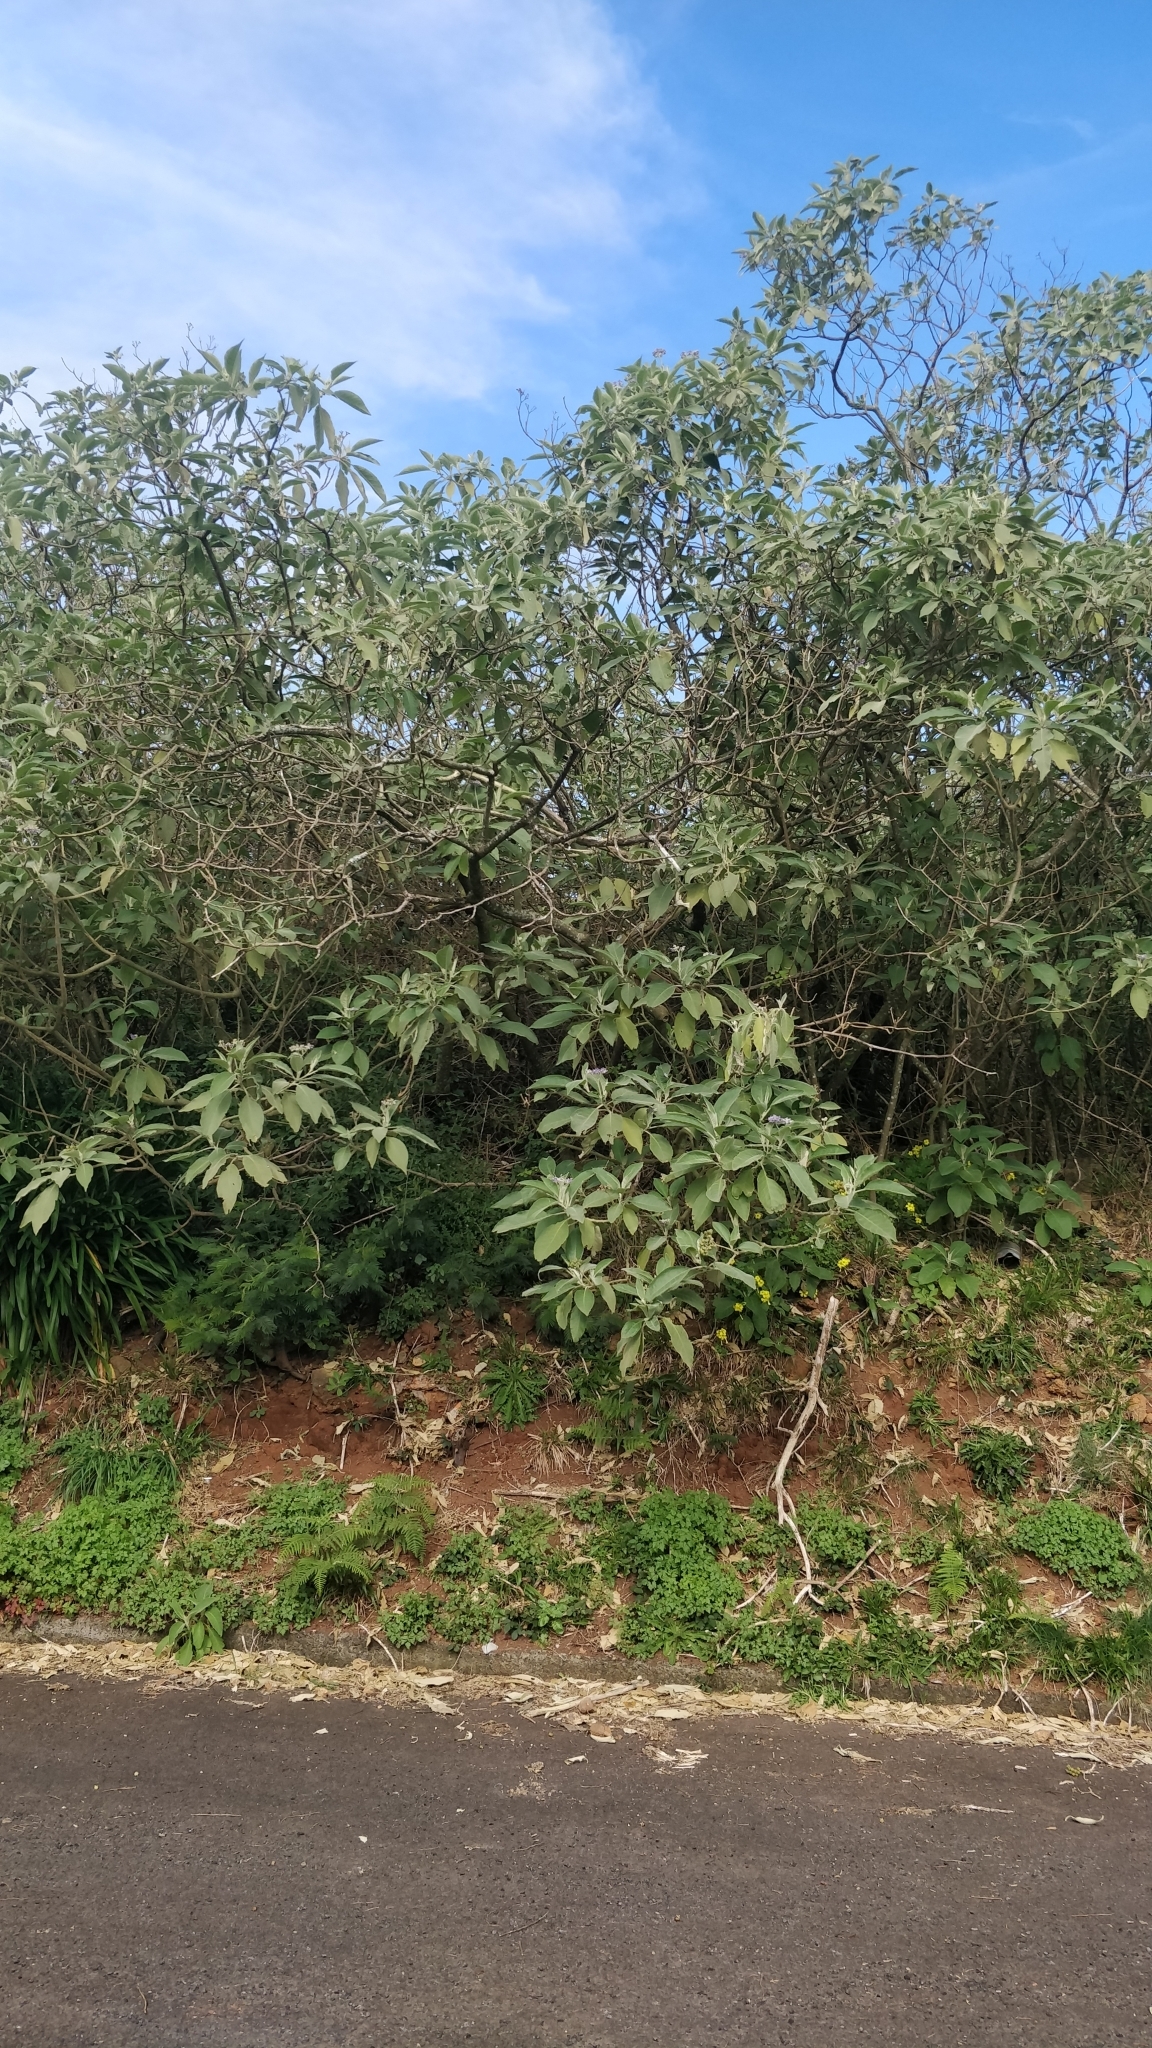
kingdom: Plantae
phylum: Tracheophyta
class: Magnoliopsida
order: Solanales
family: Solanaceae
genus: Solanum
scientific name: Solanum mauritianum
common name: Earleaf nightshade
